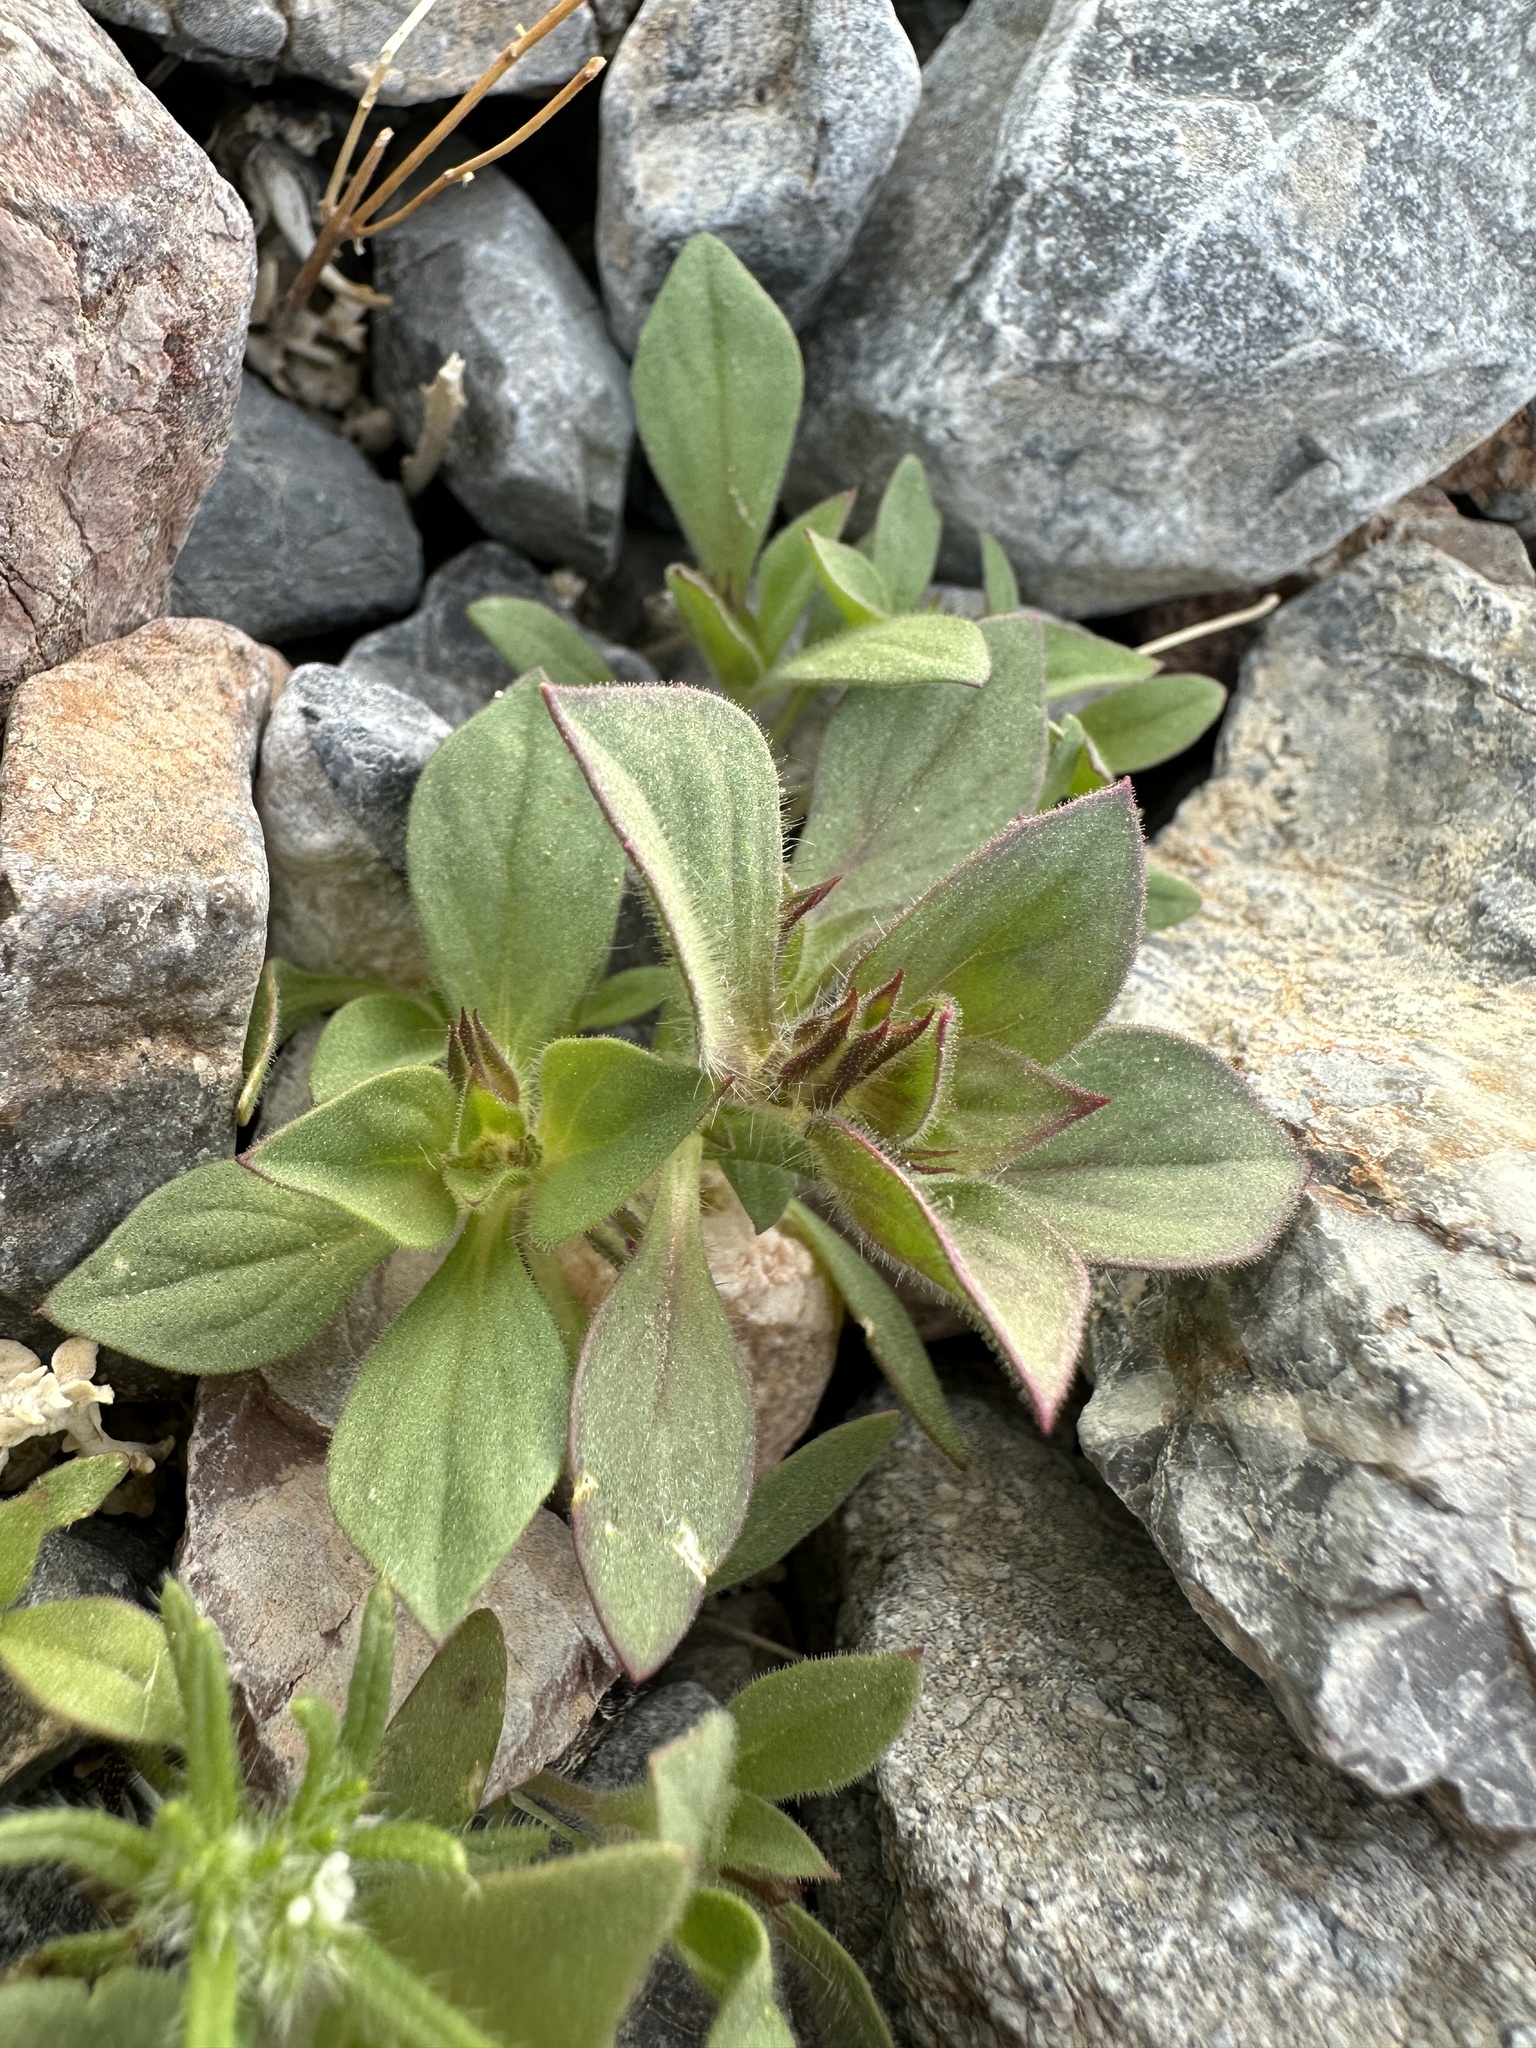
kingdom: Plantae
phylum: Tracheophyta
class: Magnoliopsida
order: Lamiales
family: Phrymaceae
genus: Diplacus
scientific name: Diplacus bigelovii
